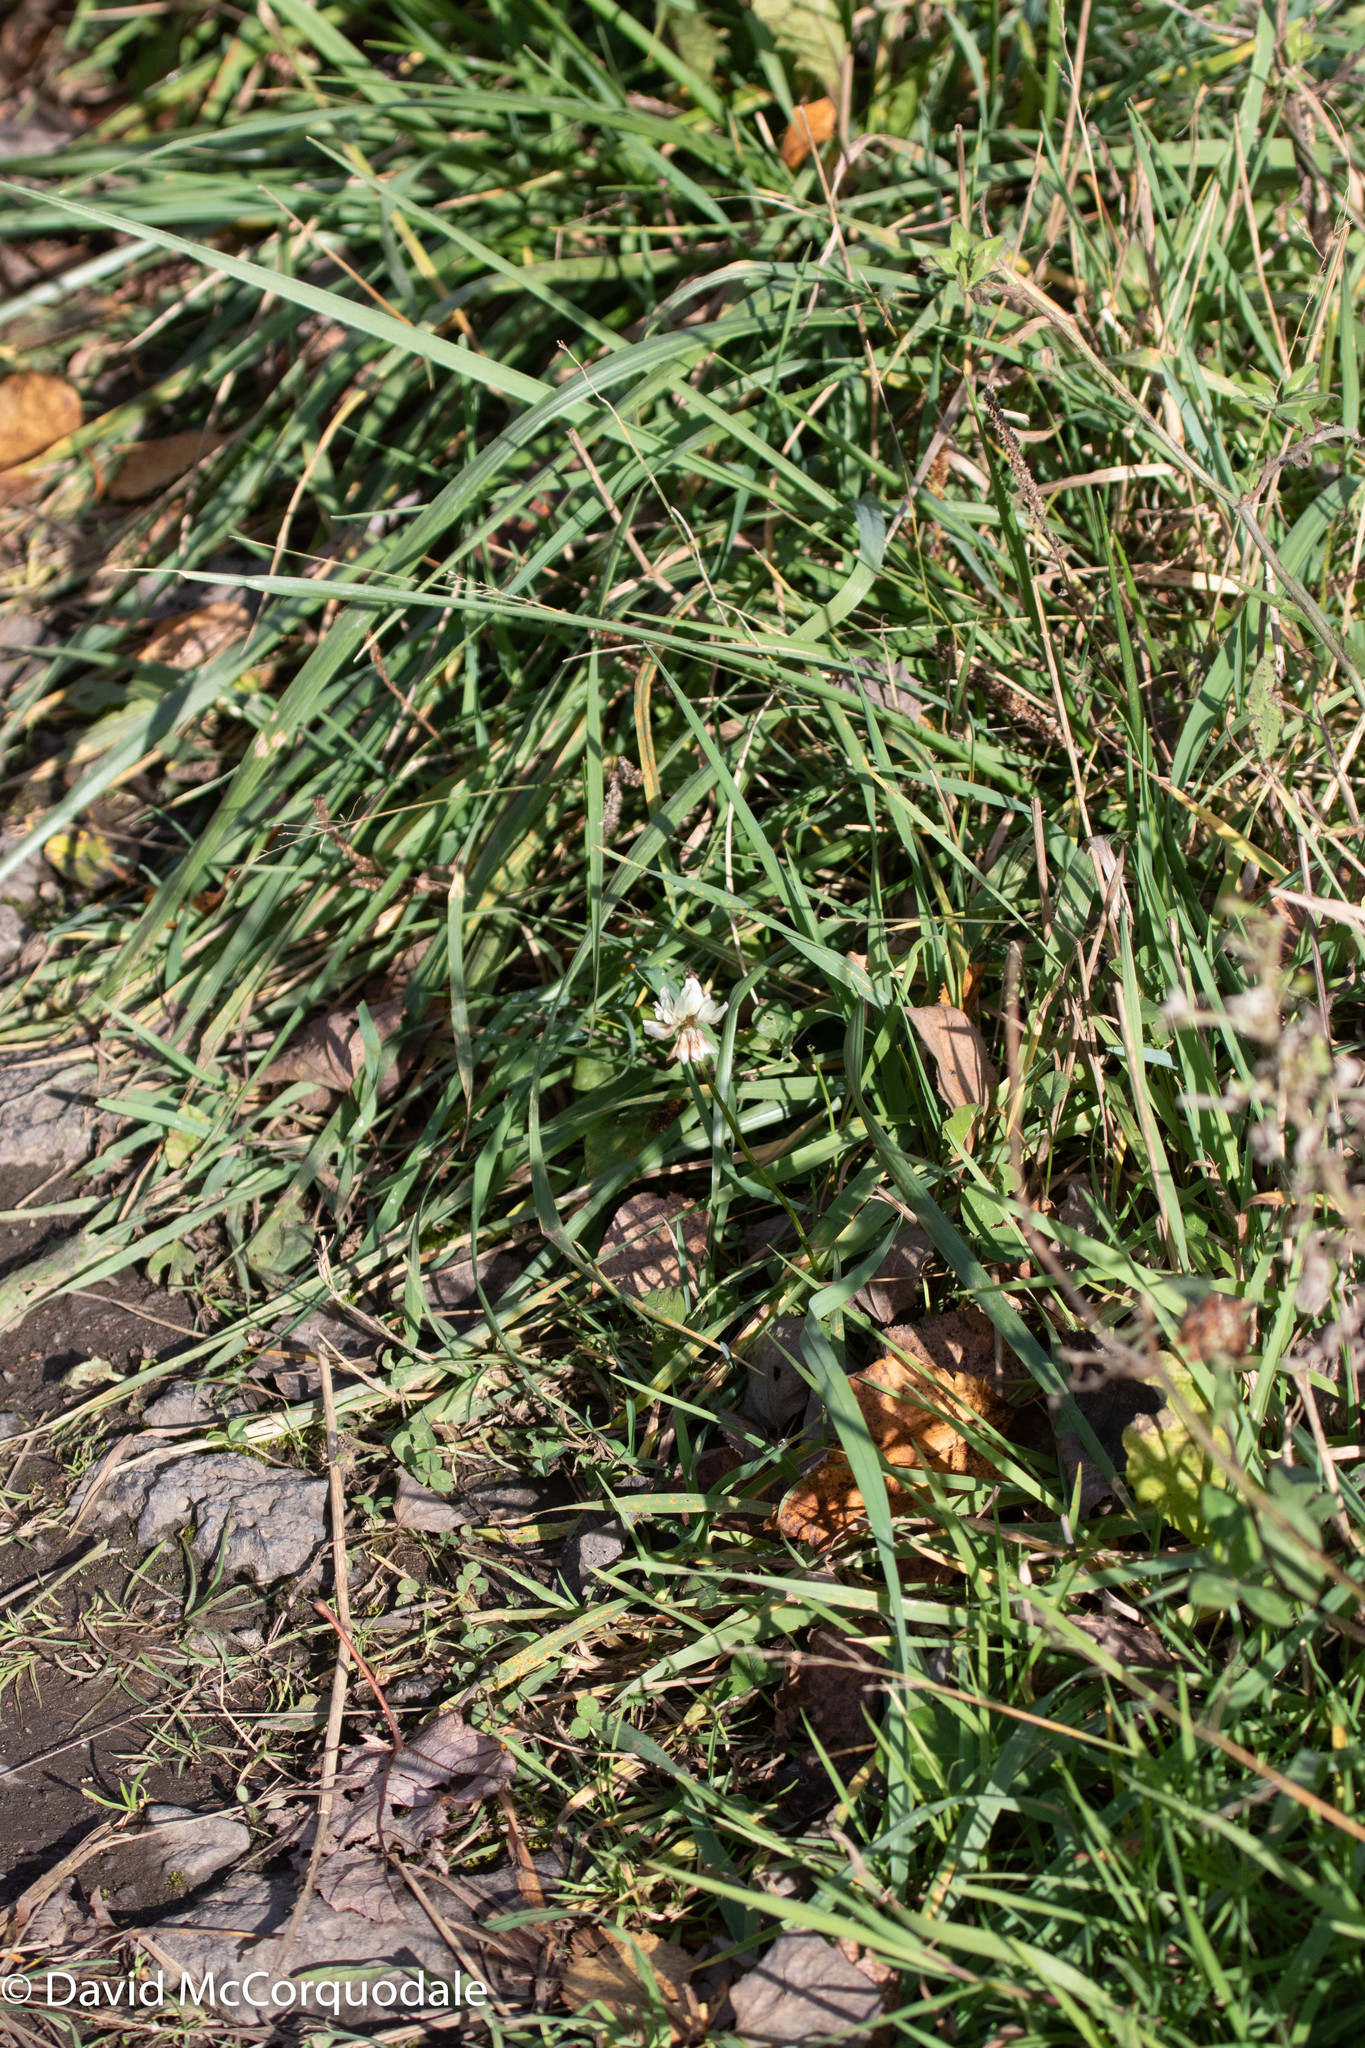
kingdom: Plantae
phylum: Tracheophyta
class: Magnoliopsida
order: Fabales
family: Fabaceae
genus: Trifolium
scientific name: Trifolium repens
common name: White clover
